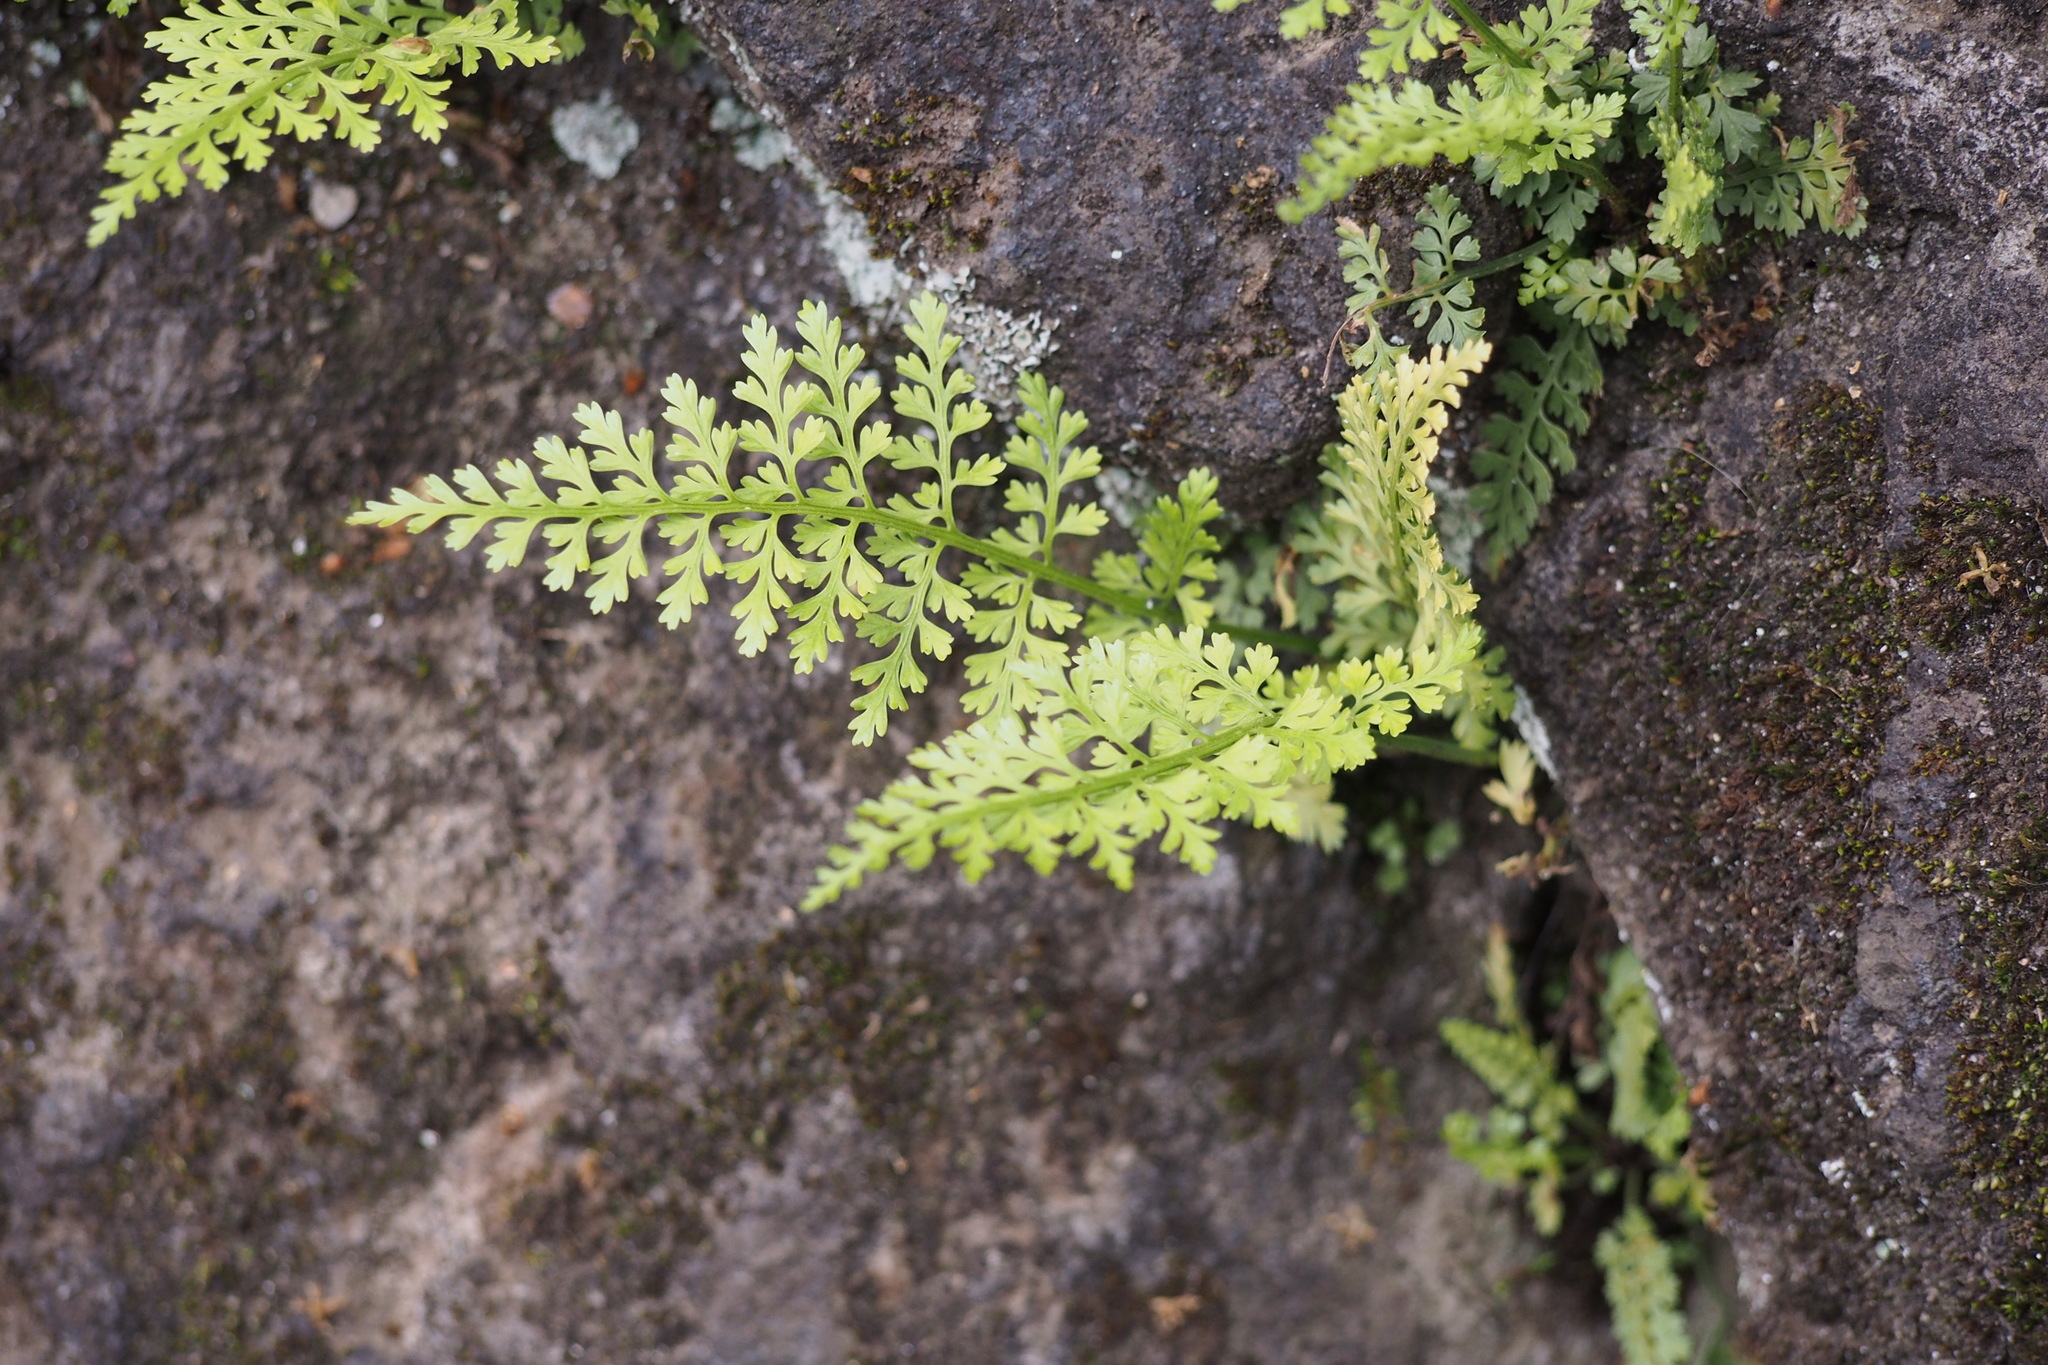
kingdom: Plantae
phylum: Tracheophyta
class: Polypodiopsida
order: Polypodiales
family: Aspleniaceae
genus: Asplenium
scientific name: Asplenium anogrammoides
